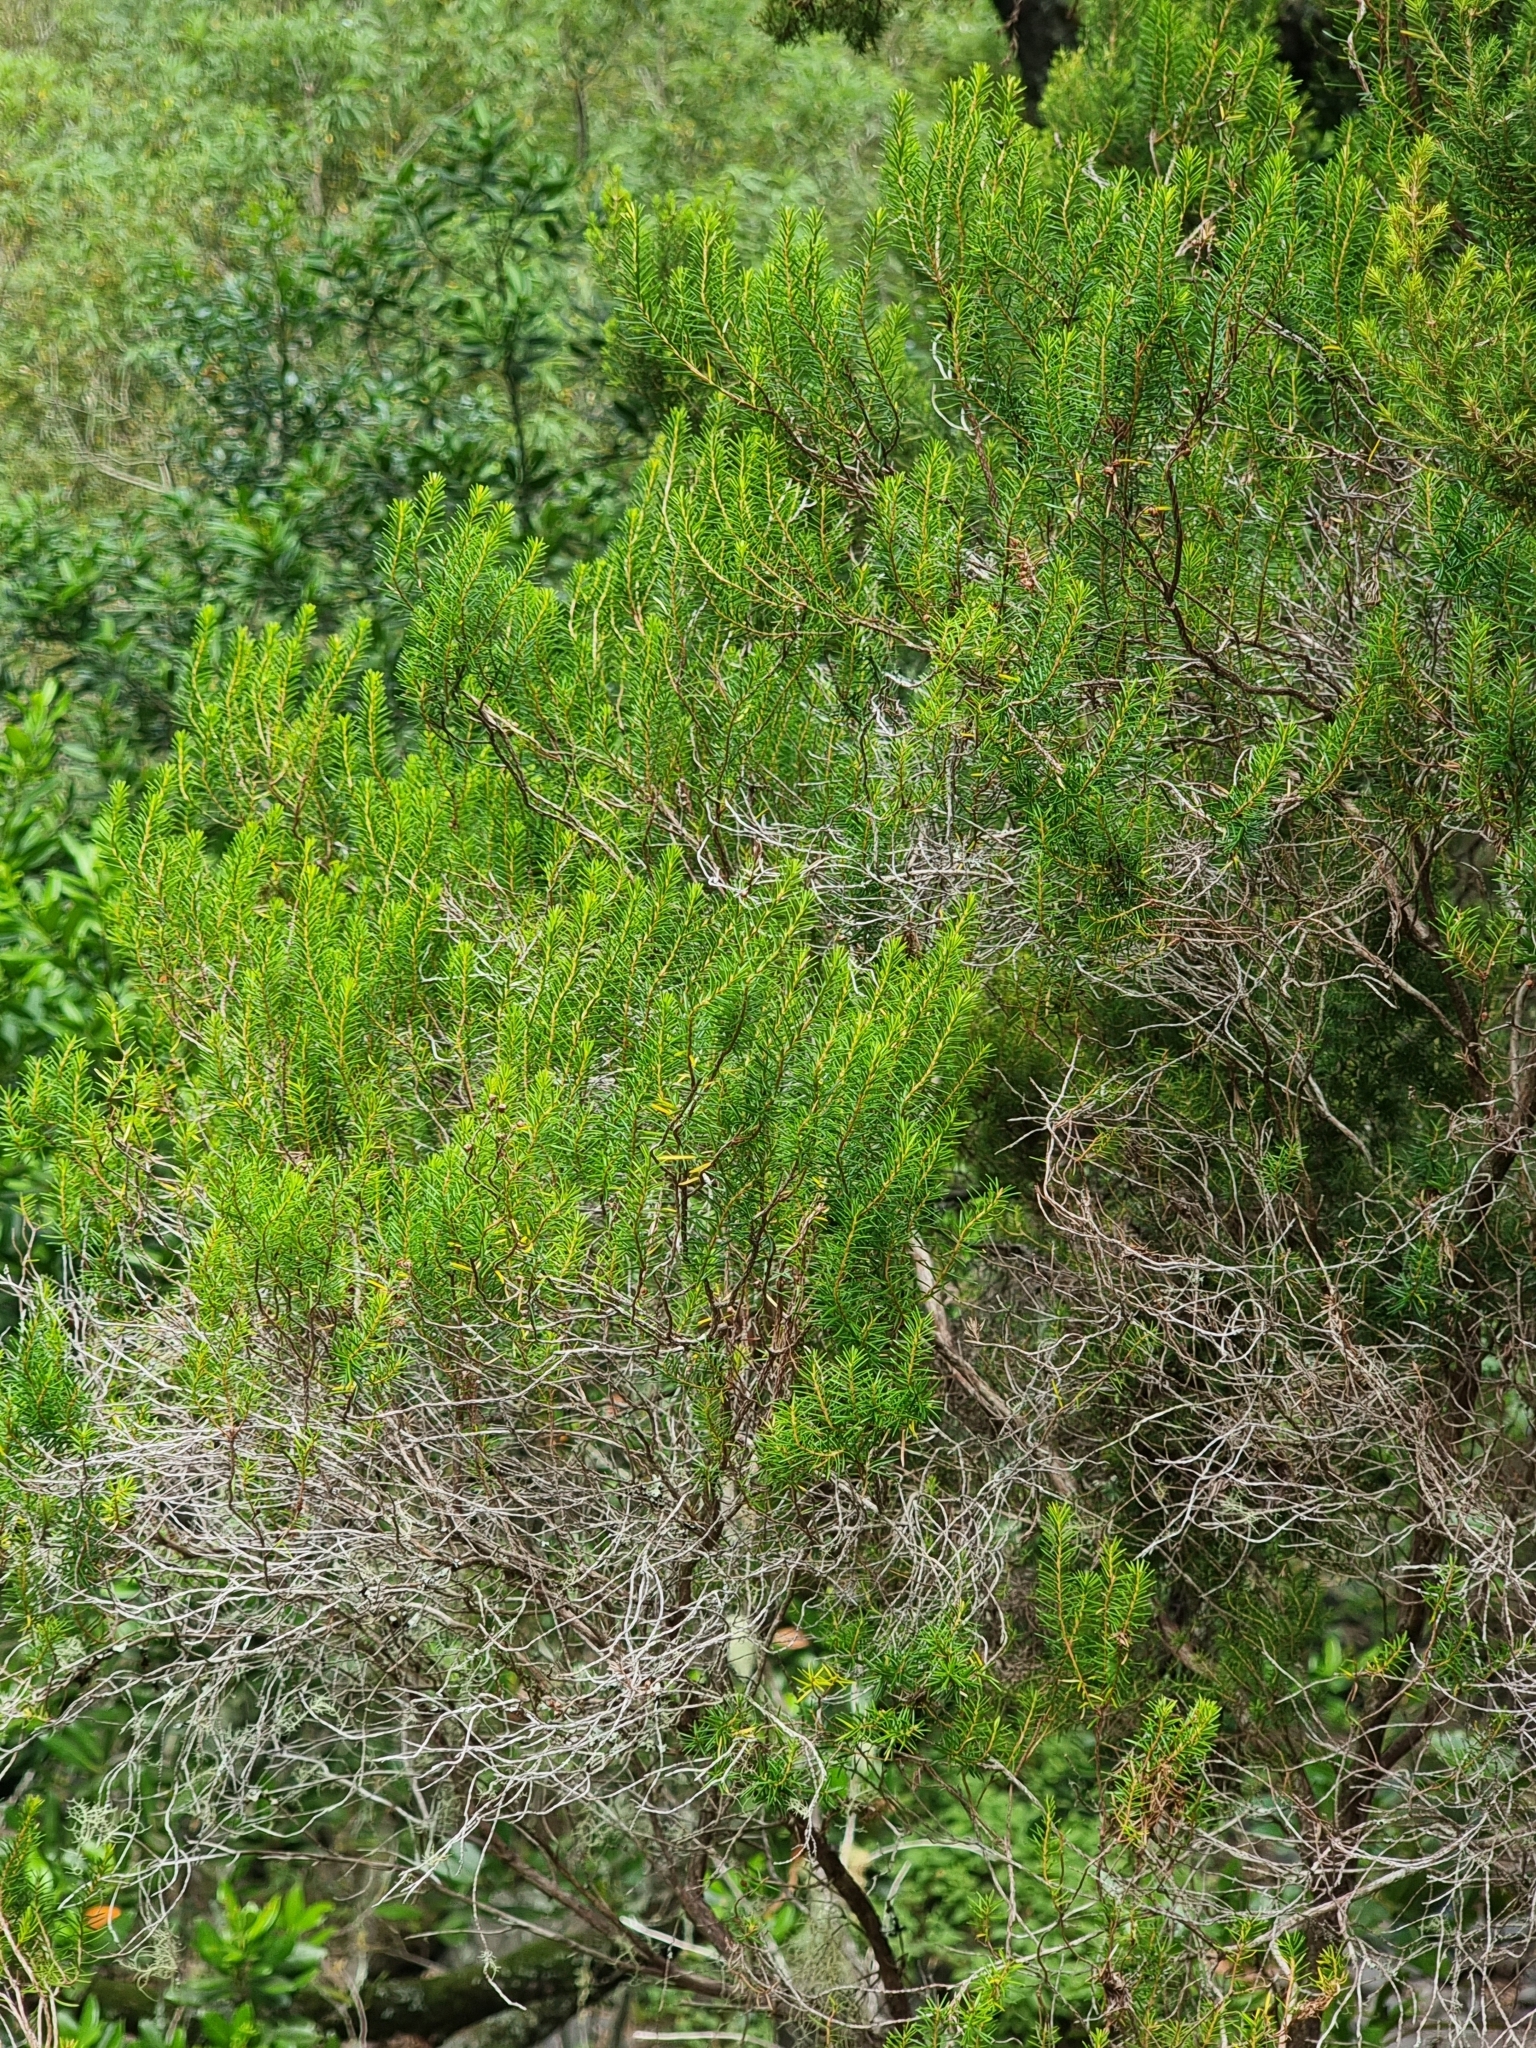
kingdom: Plantae
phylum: Tracheophyta
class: Magnoliopsida
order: Ericales
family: Ericaceae
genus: Erica
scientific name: Erica platycodon
